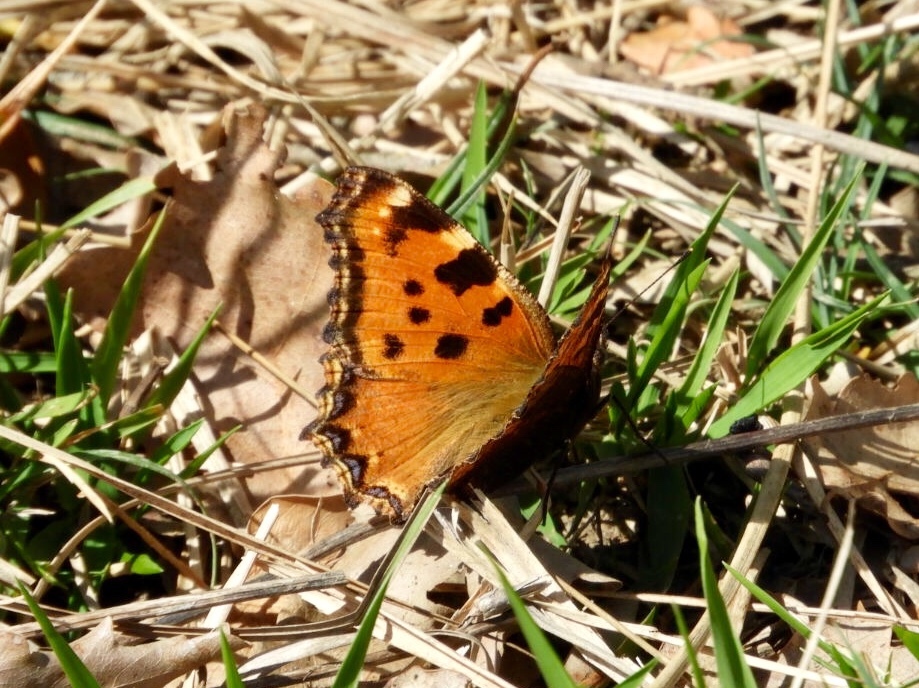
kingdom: Animalia
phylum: Arthropoda
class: Insecta
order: Lepidoptera
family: Nymphalidae
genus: Nymphalis
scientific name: Nymphalis polychloros
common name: Large tortoiseshell
